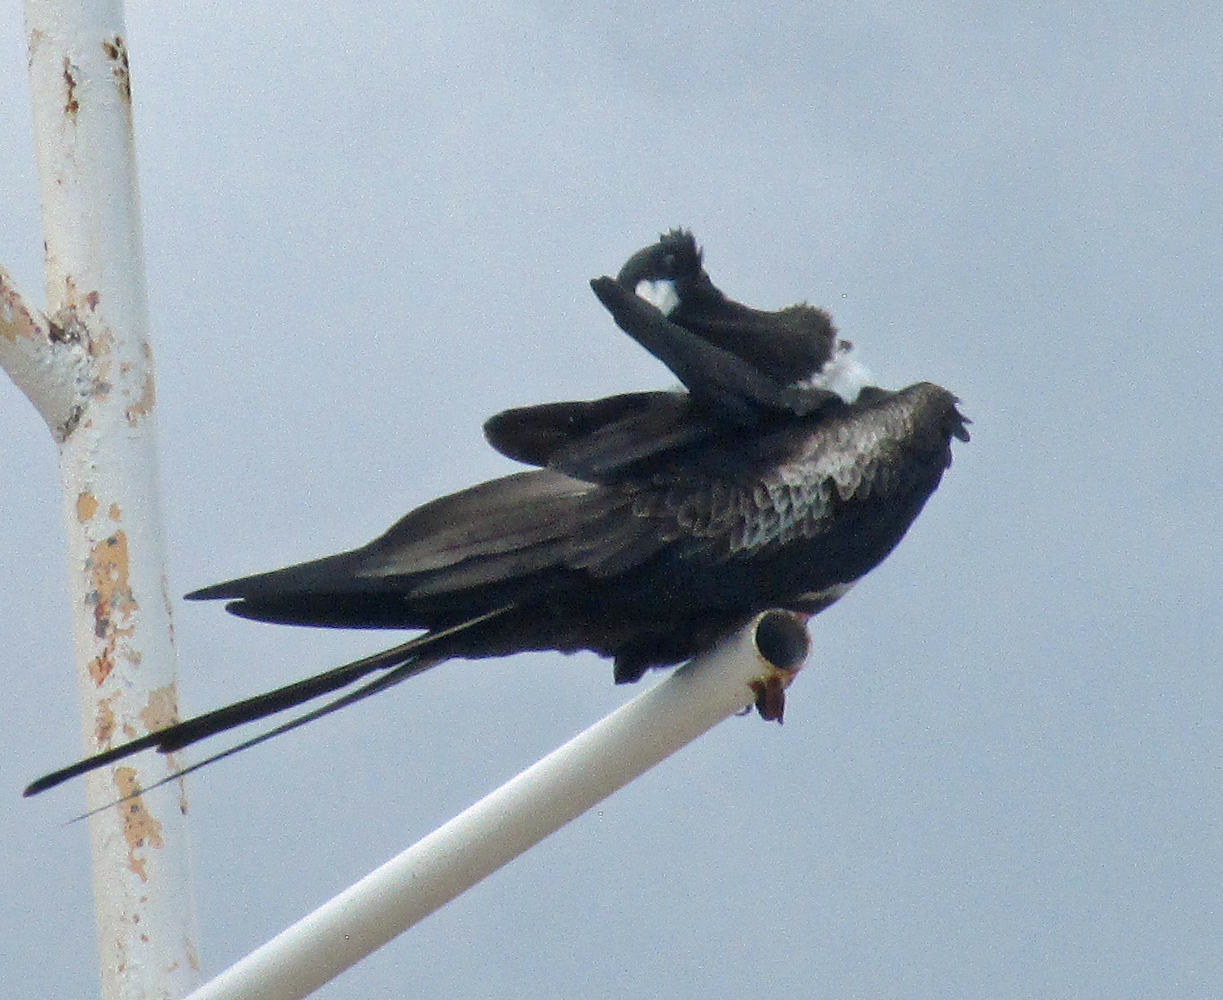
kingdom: Animalia
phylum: Chordata
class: Aves
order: Suliformes
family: Fregatidae
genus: Fregata
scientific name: Fregata magnificens
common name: Magnificent frigatebird
